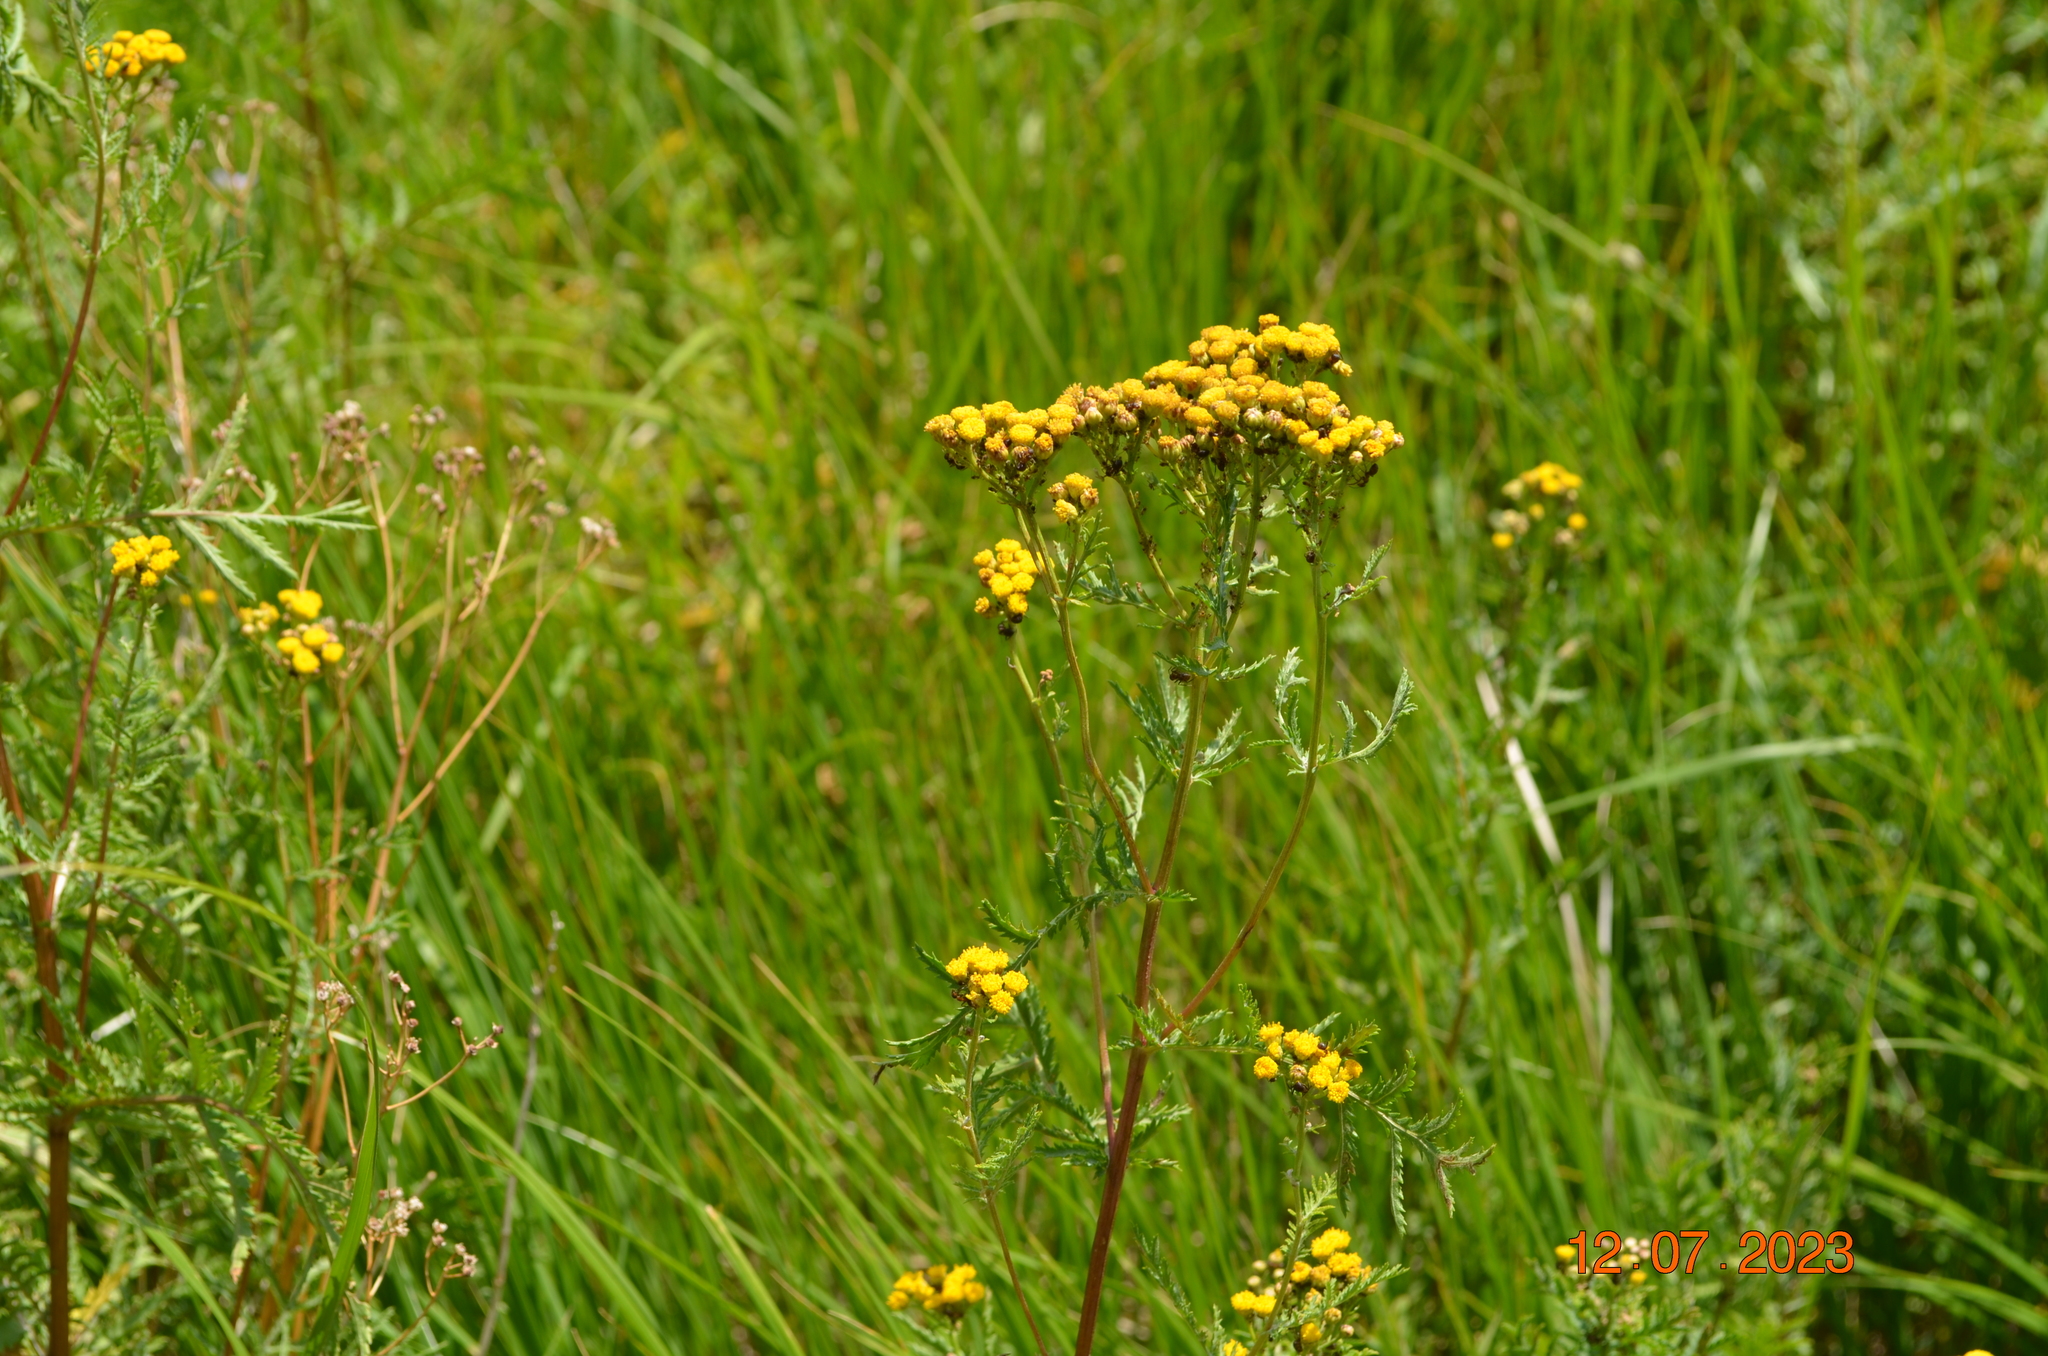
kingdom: Plantae
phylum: Tracheophyta
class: Magnoliopsida
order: Asterales
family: Asteraceae
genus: Tanacetum
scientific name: Tanacetum vulgare
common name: Common tansy
